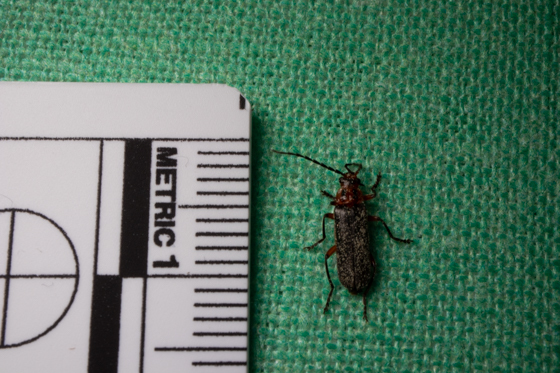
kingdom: Animalia
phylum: Arthropoda
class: Insecta
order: Coleoptera
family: Cantharidae
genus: Atalantycha
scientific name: Atalantycha bilineata
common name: Two-lined leatherwing
